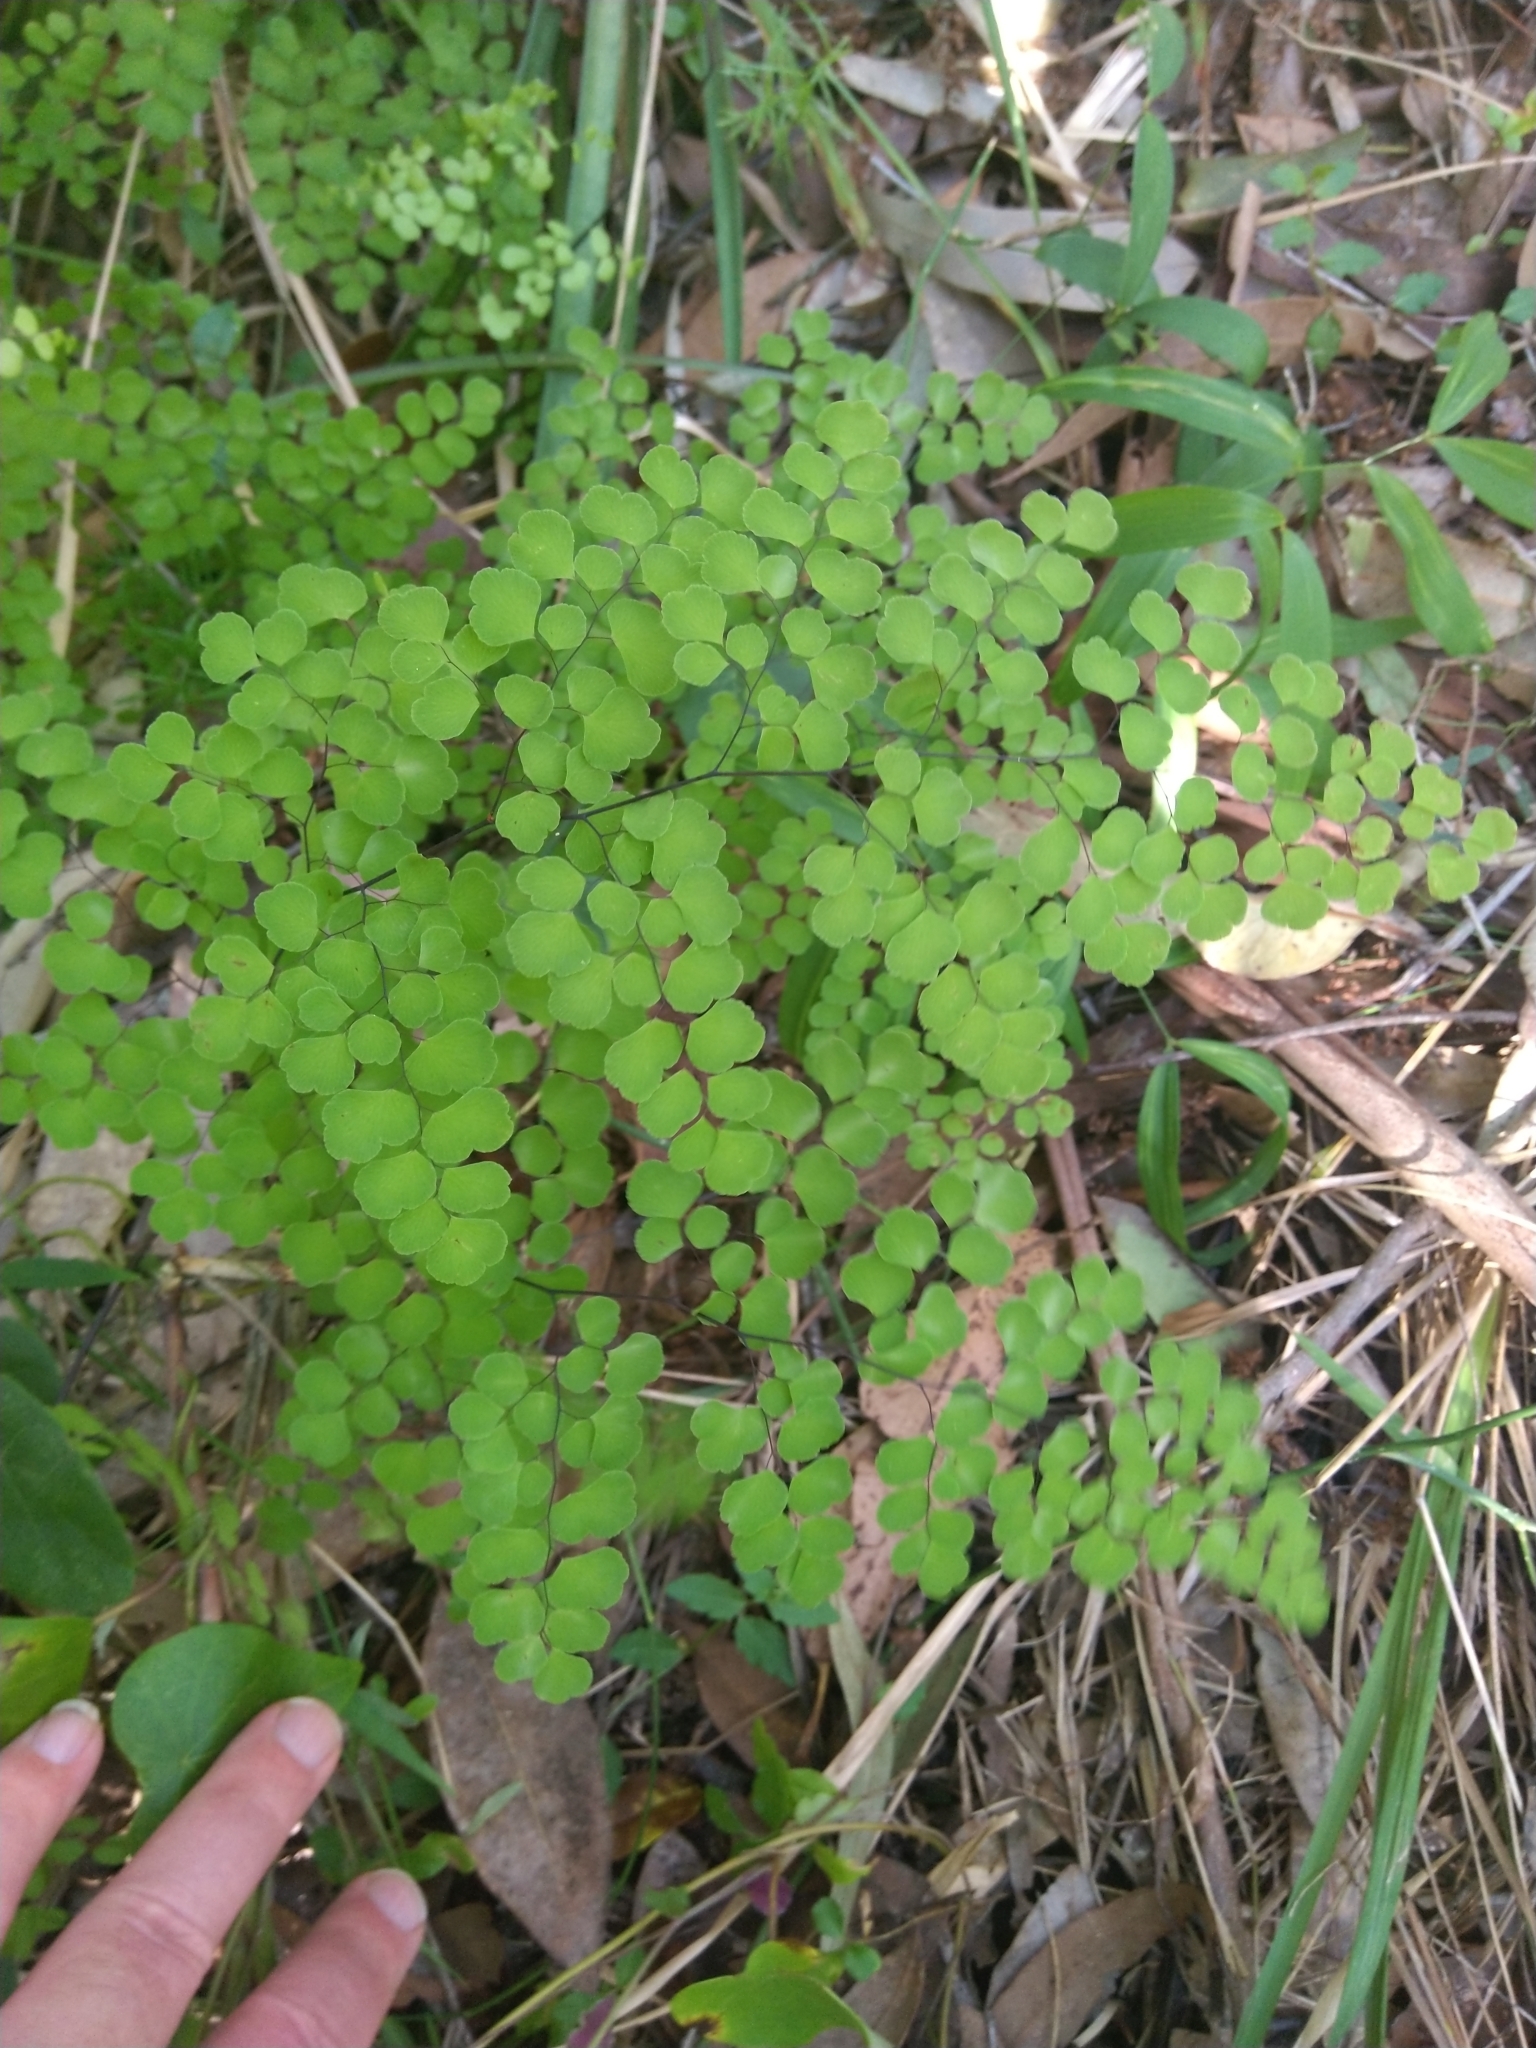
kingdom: Plantae
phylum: Tracheophyta
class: Polypodiopsida
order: Polypodiales
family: Pteridaceae
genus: Adiantum
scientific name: Adiantum aethiopicum
